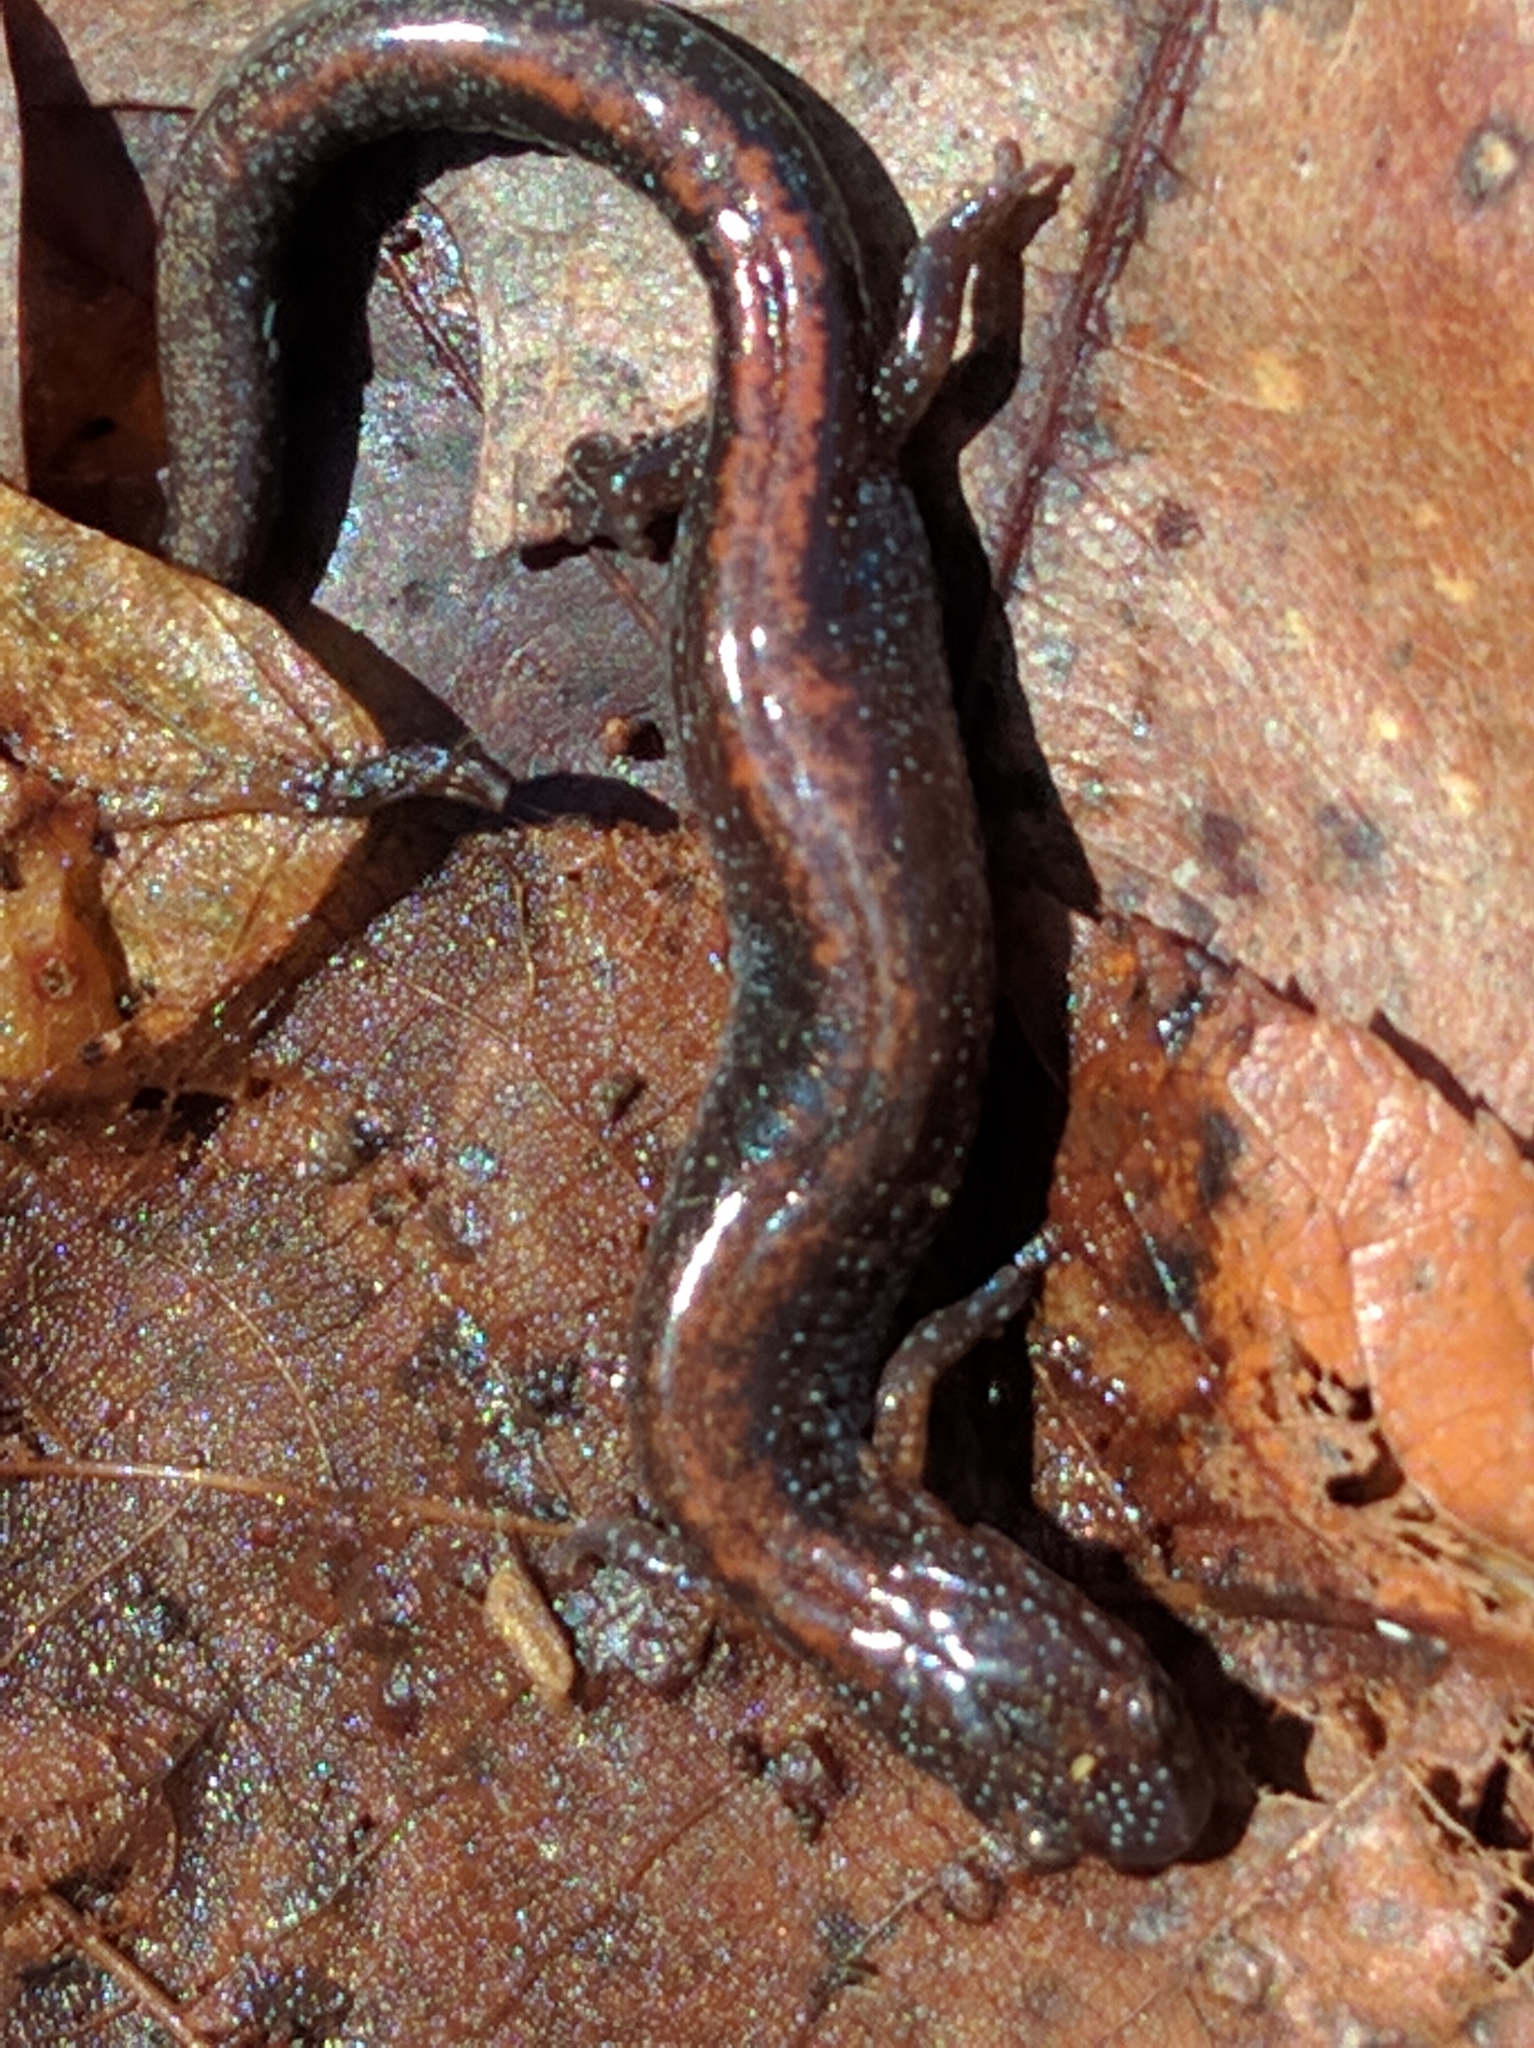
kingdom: Animalia
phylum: Chordata
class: Amphibia
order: Caudata
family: Plethodontidae
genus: Plethodon
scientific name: Plethodon cinereus
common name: Redback salamander
